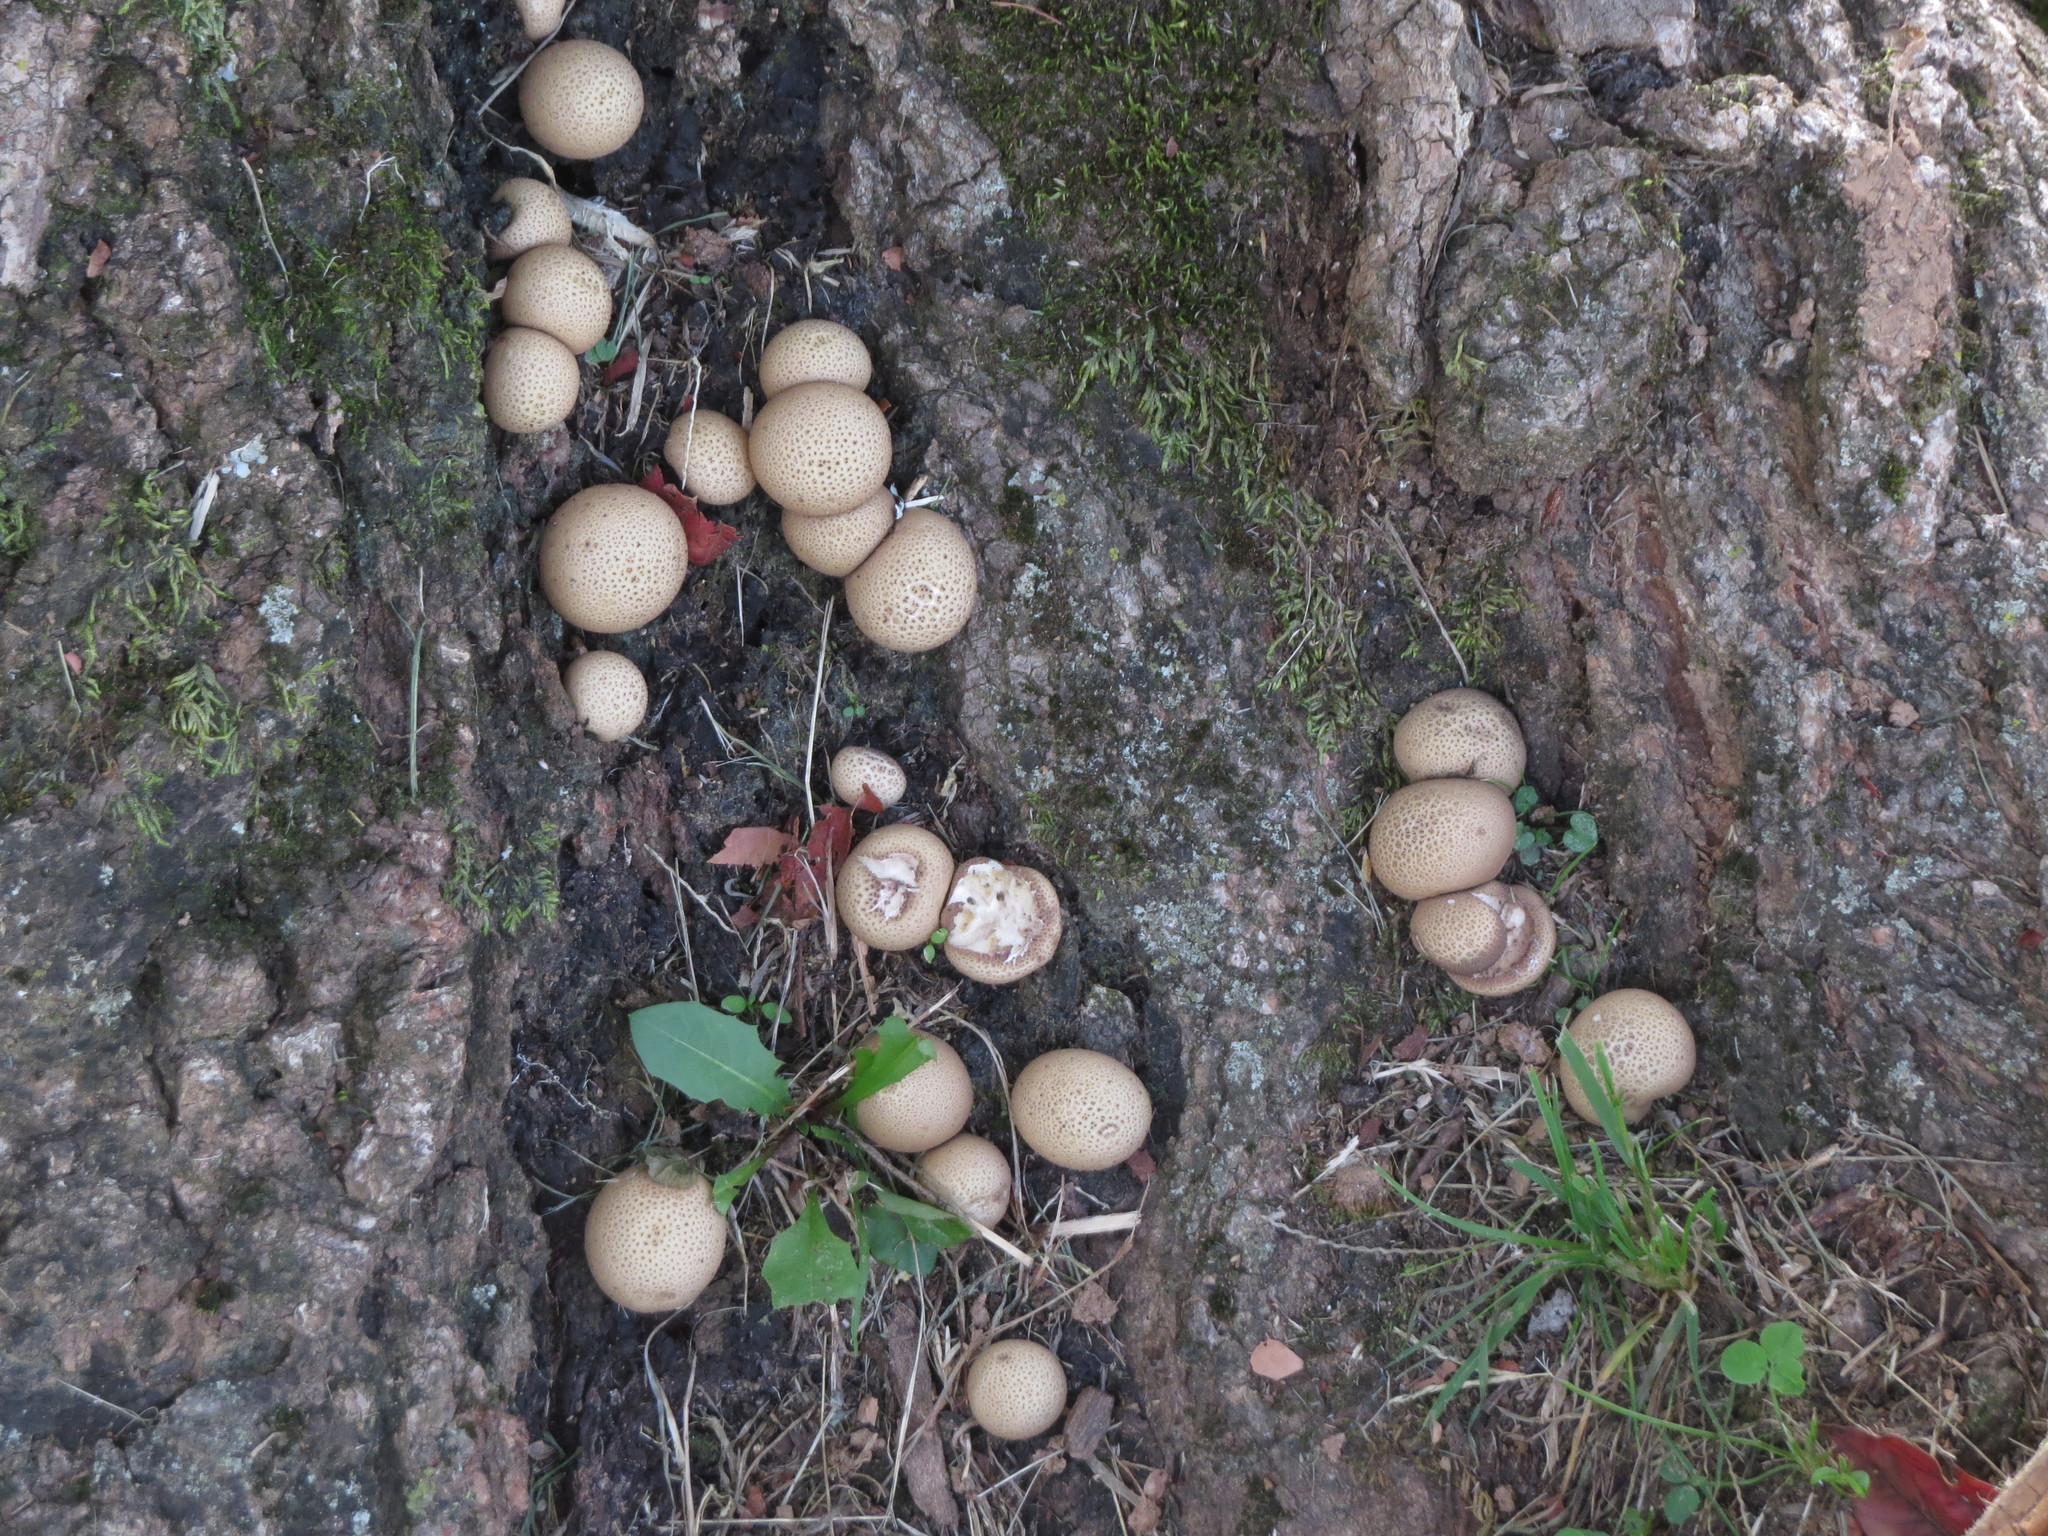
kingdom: Fungi
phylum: Basidiomycota
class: Agaricomycetes
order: Agaricales
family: Lycoperdaceae
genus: Apioperdon
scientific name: Apioperdon pyriforme
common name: Pear-shaped puffball
